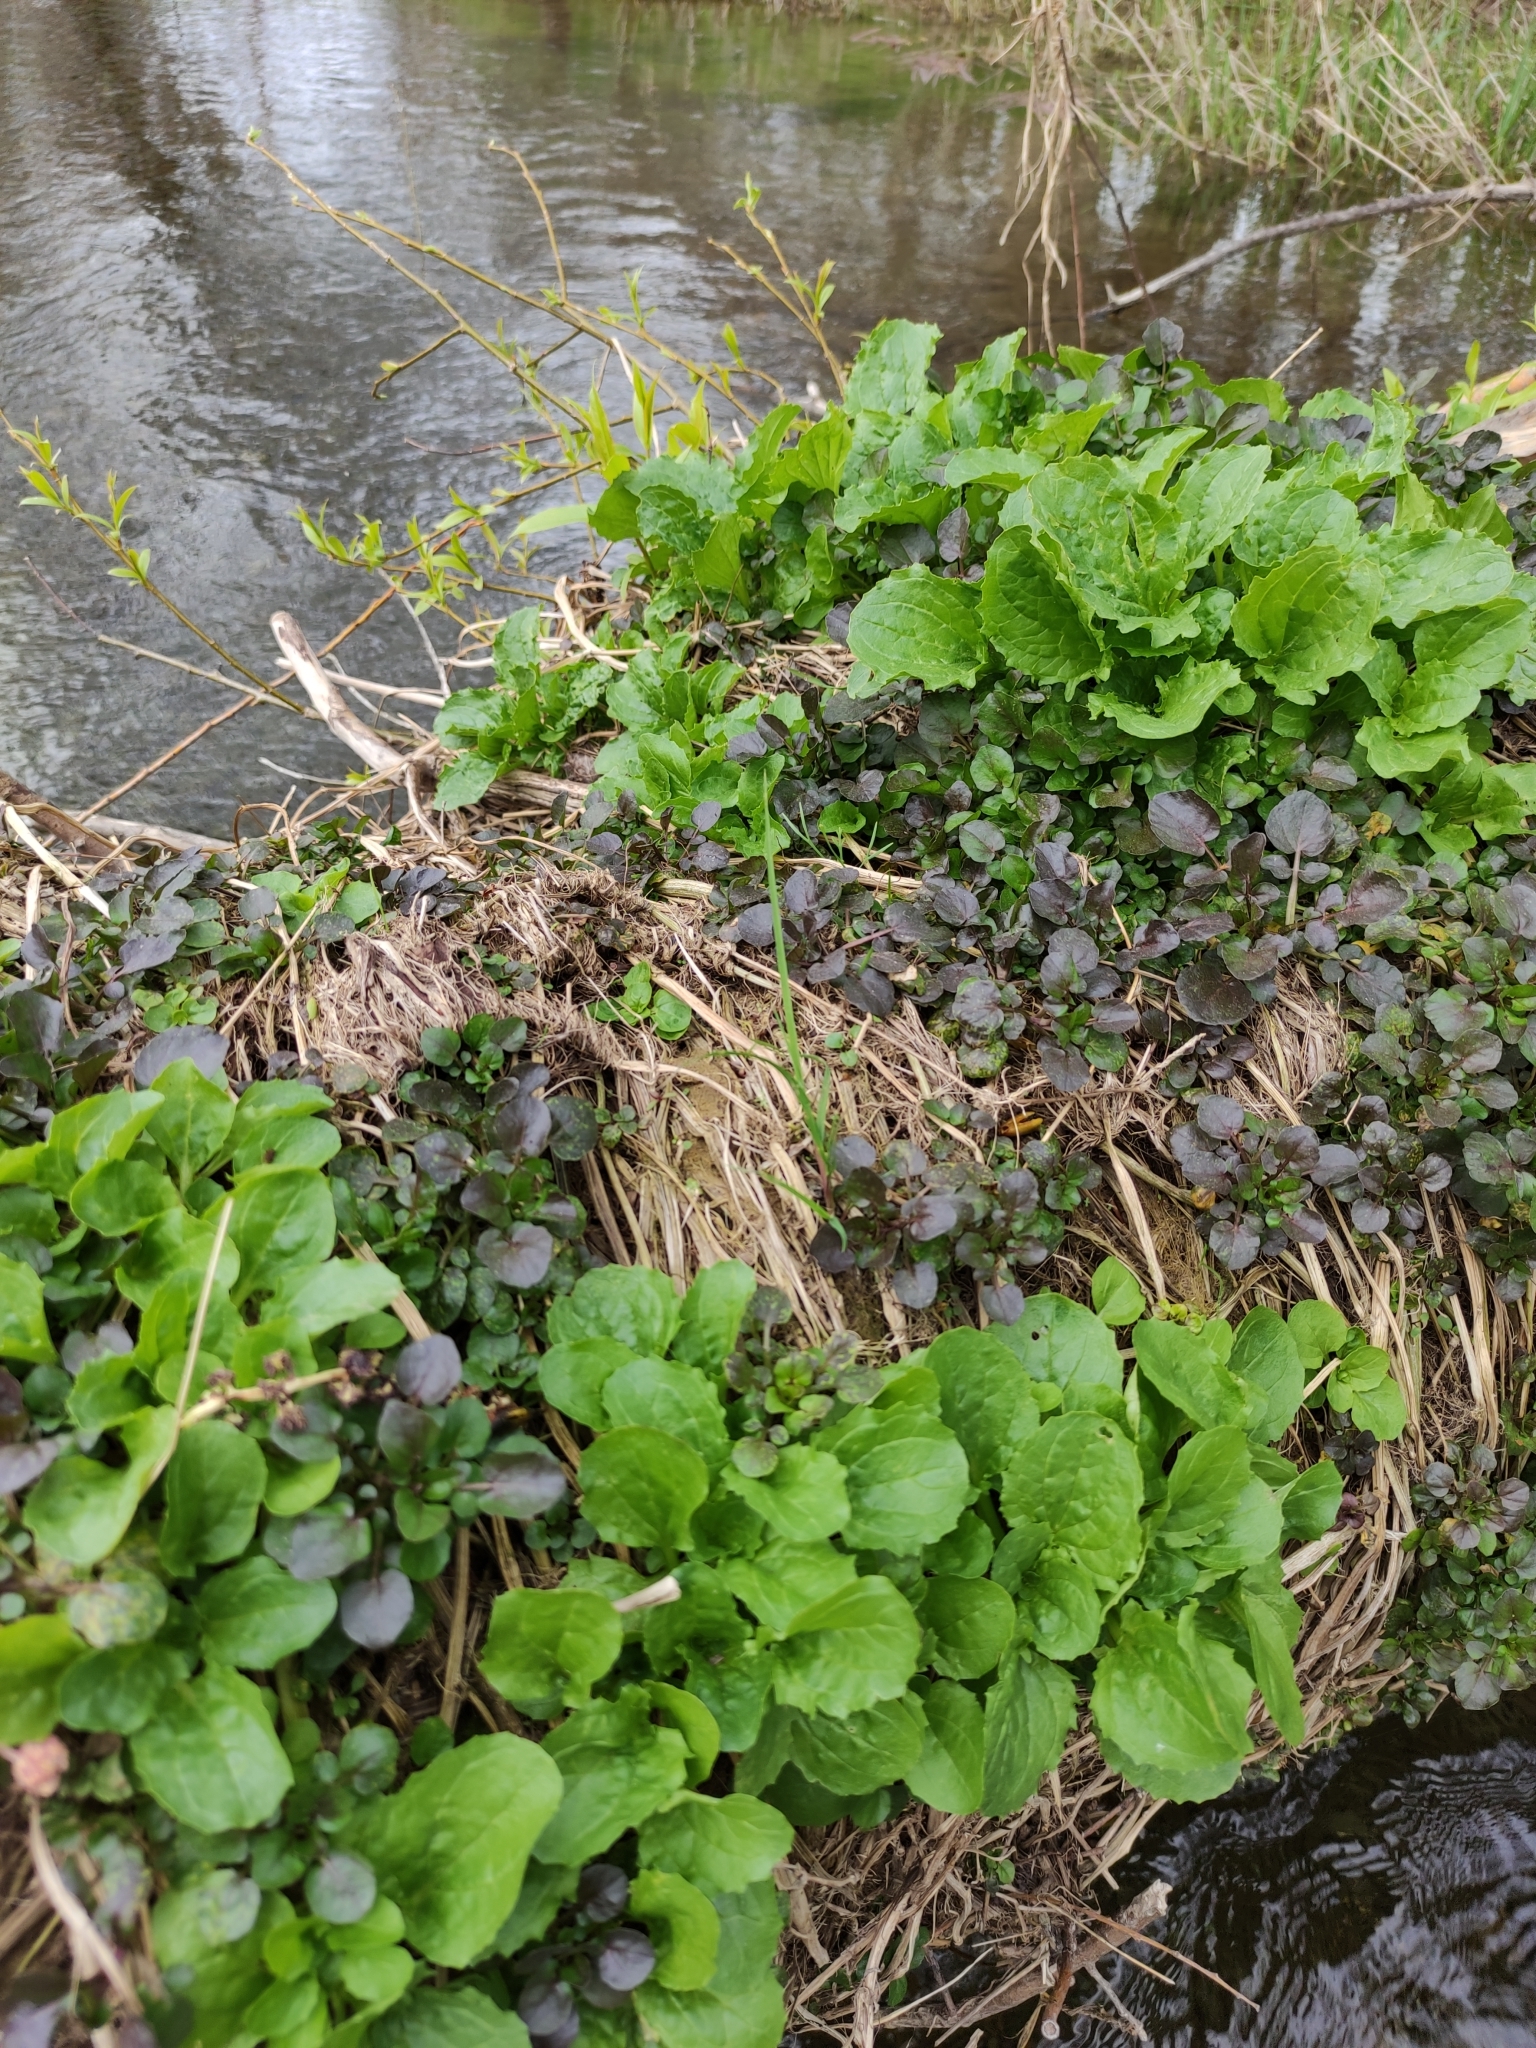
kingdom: Plantae
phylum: Tracheophyta
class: Magnoliopsida
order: Lamiales
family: Phrymaceae
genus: Erythranthe
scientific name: Erythranthe guttata
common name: Monkeyflower
